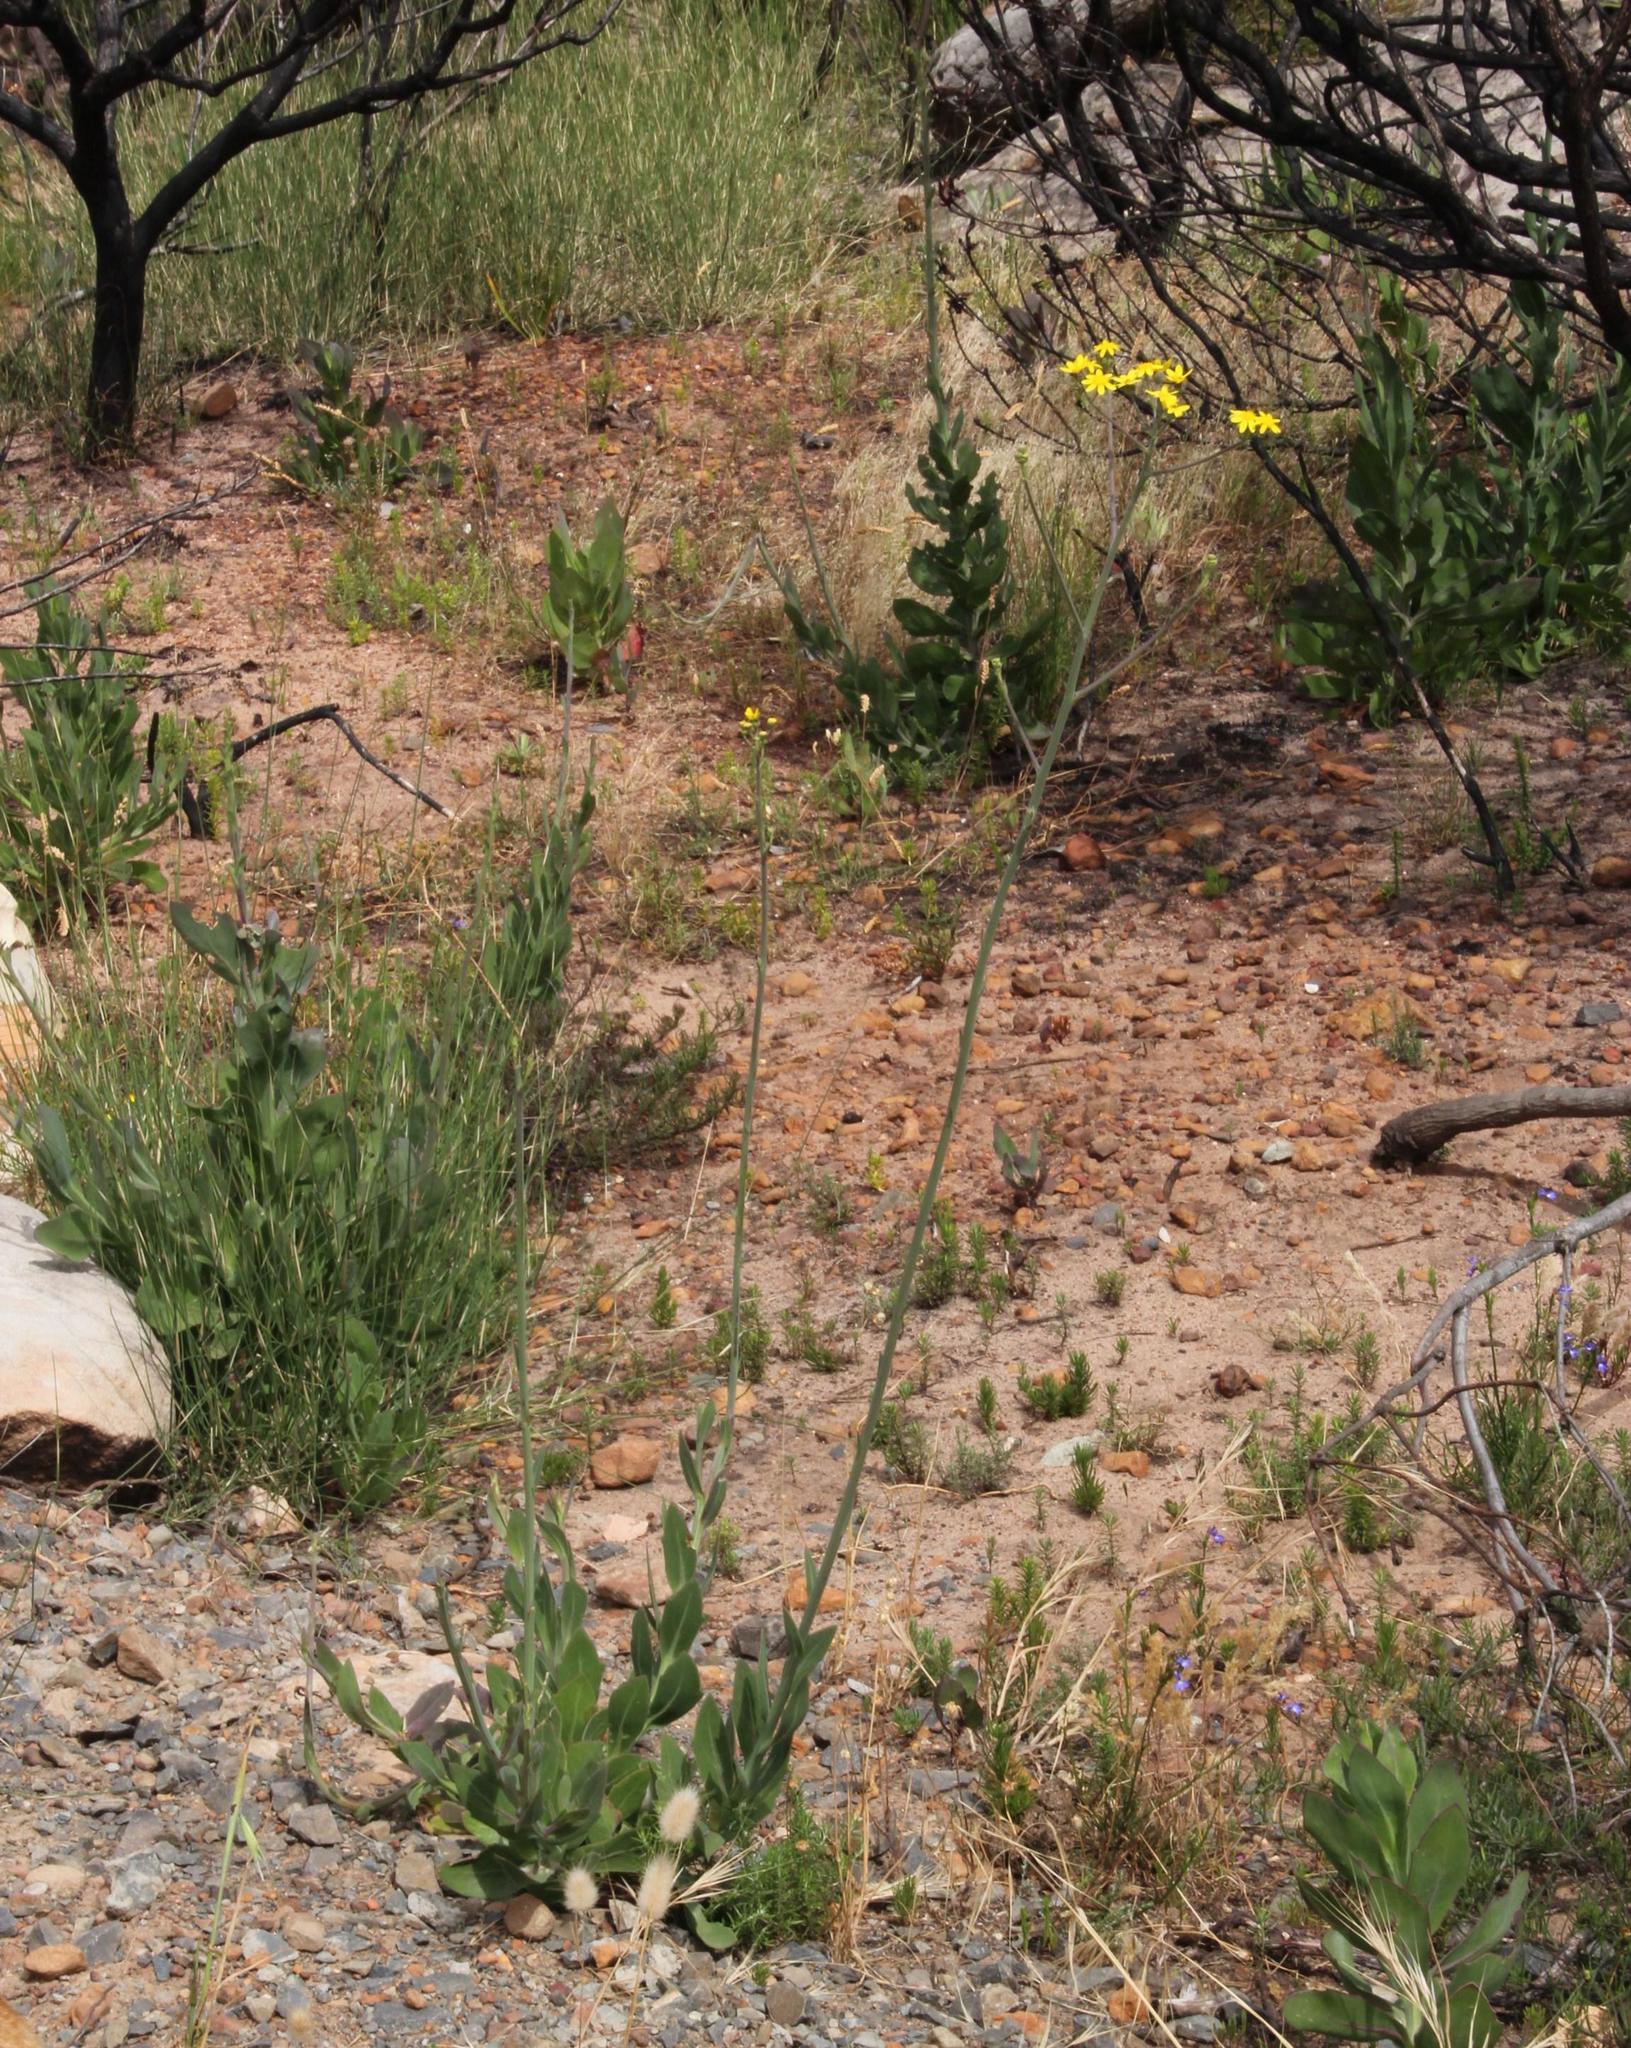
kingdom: Plantae
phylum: Tracheophyta
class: Magnoliopsida
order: Asterales
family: Asteraceae
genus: Othonna
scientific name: Othonna quinquedentata
